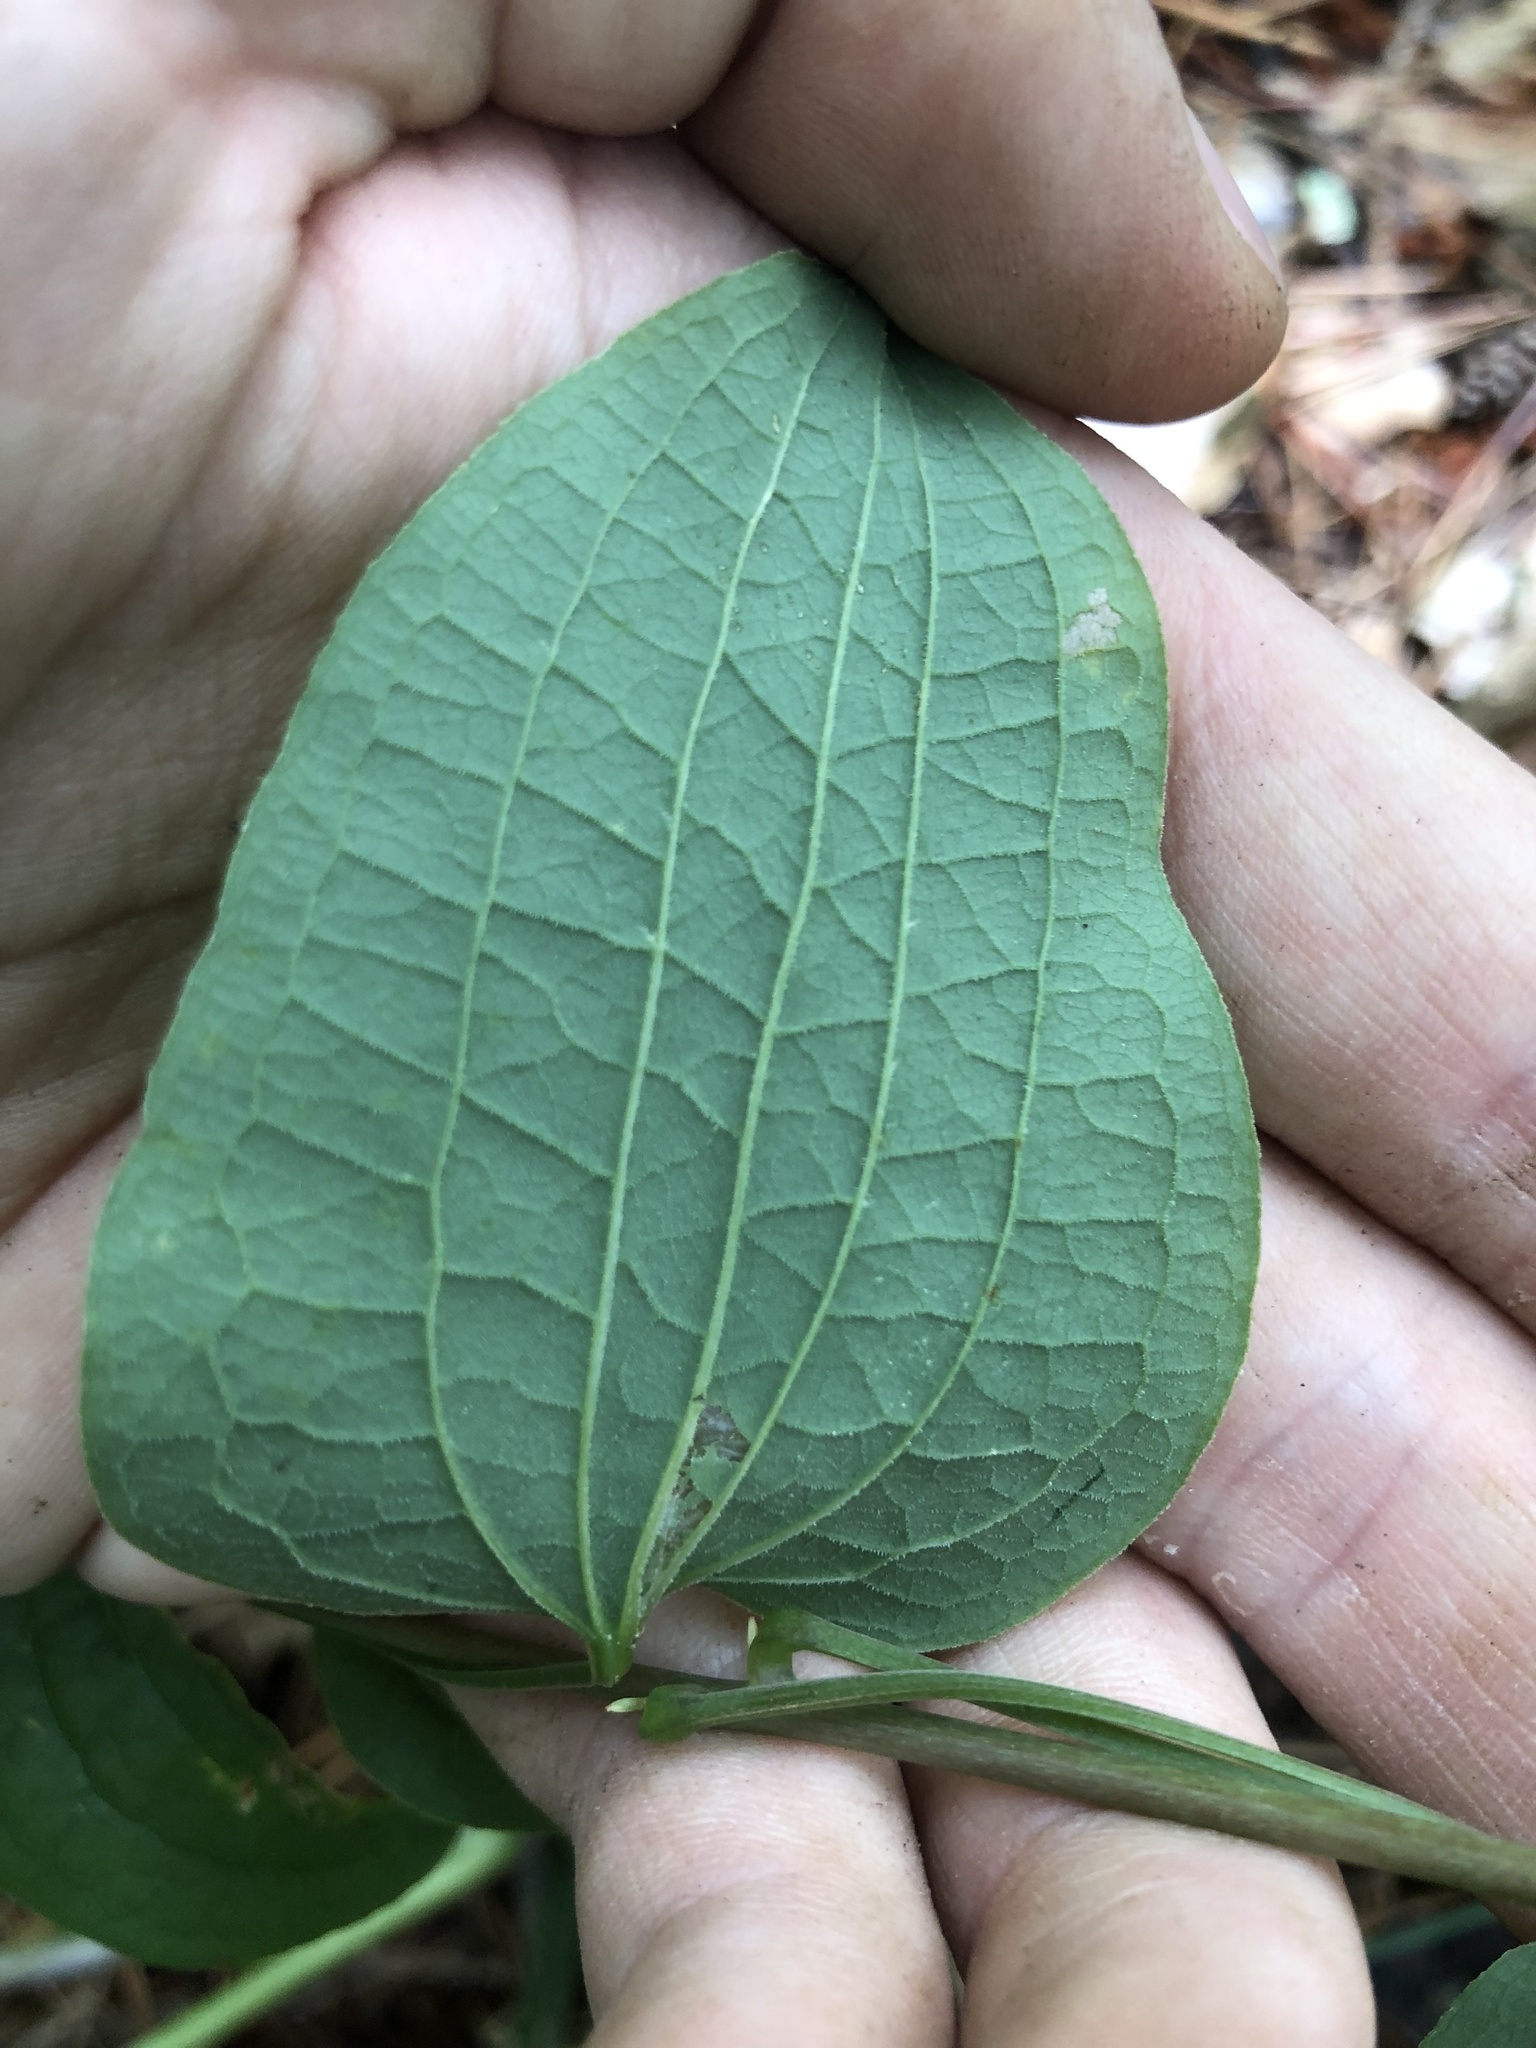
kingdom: Plantae
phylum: Tracheophyta
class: Liliopsida
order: Liliales
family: Smilacaceae
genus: Smilax
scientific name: Smilax lasioneura
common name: Blue ridge carrionflower
